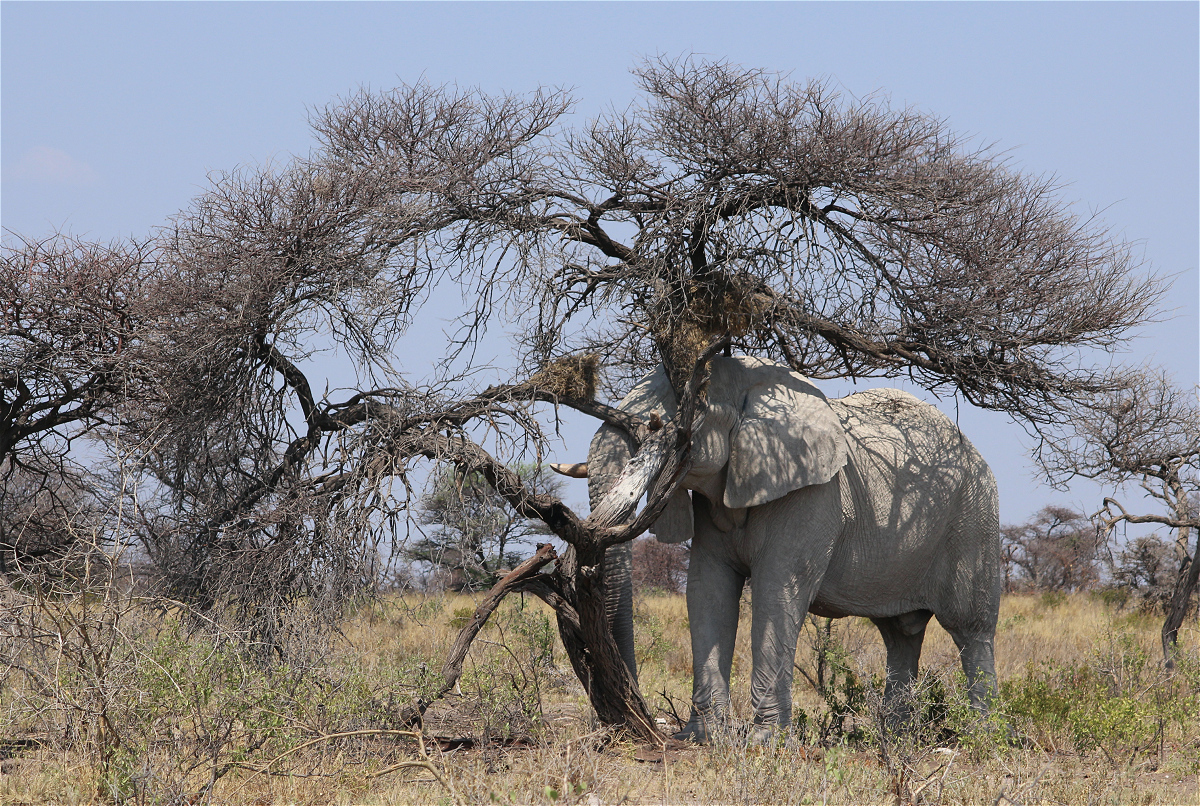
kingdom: Animalia
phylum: Chordata
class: Mammalia
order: Proboscidea
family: Elephantidae
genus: Loxodonta
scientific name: Loxodonta africana
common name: African elephant
